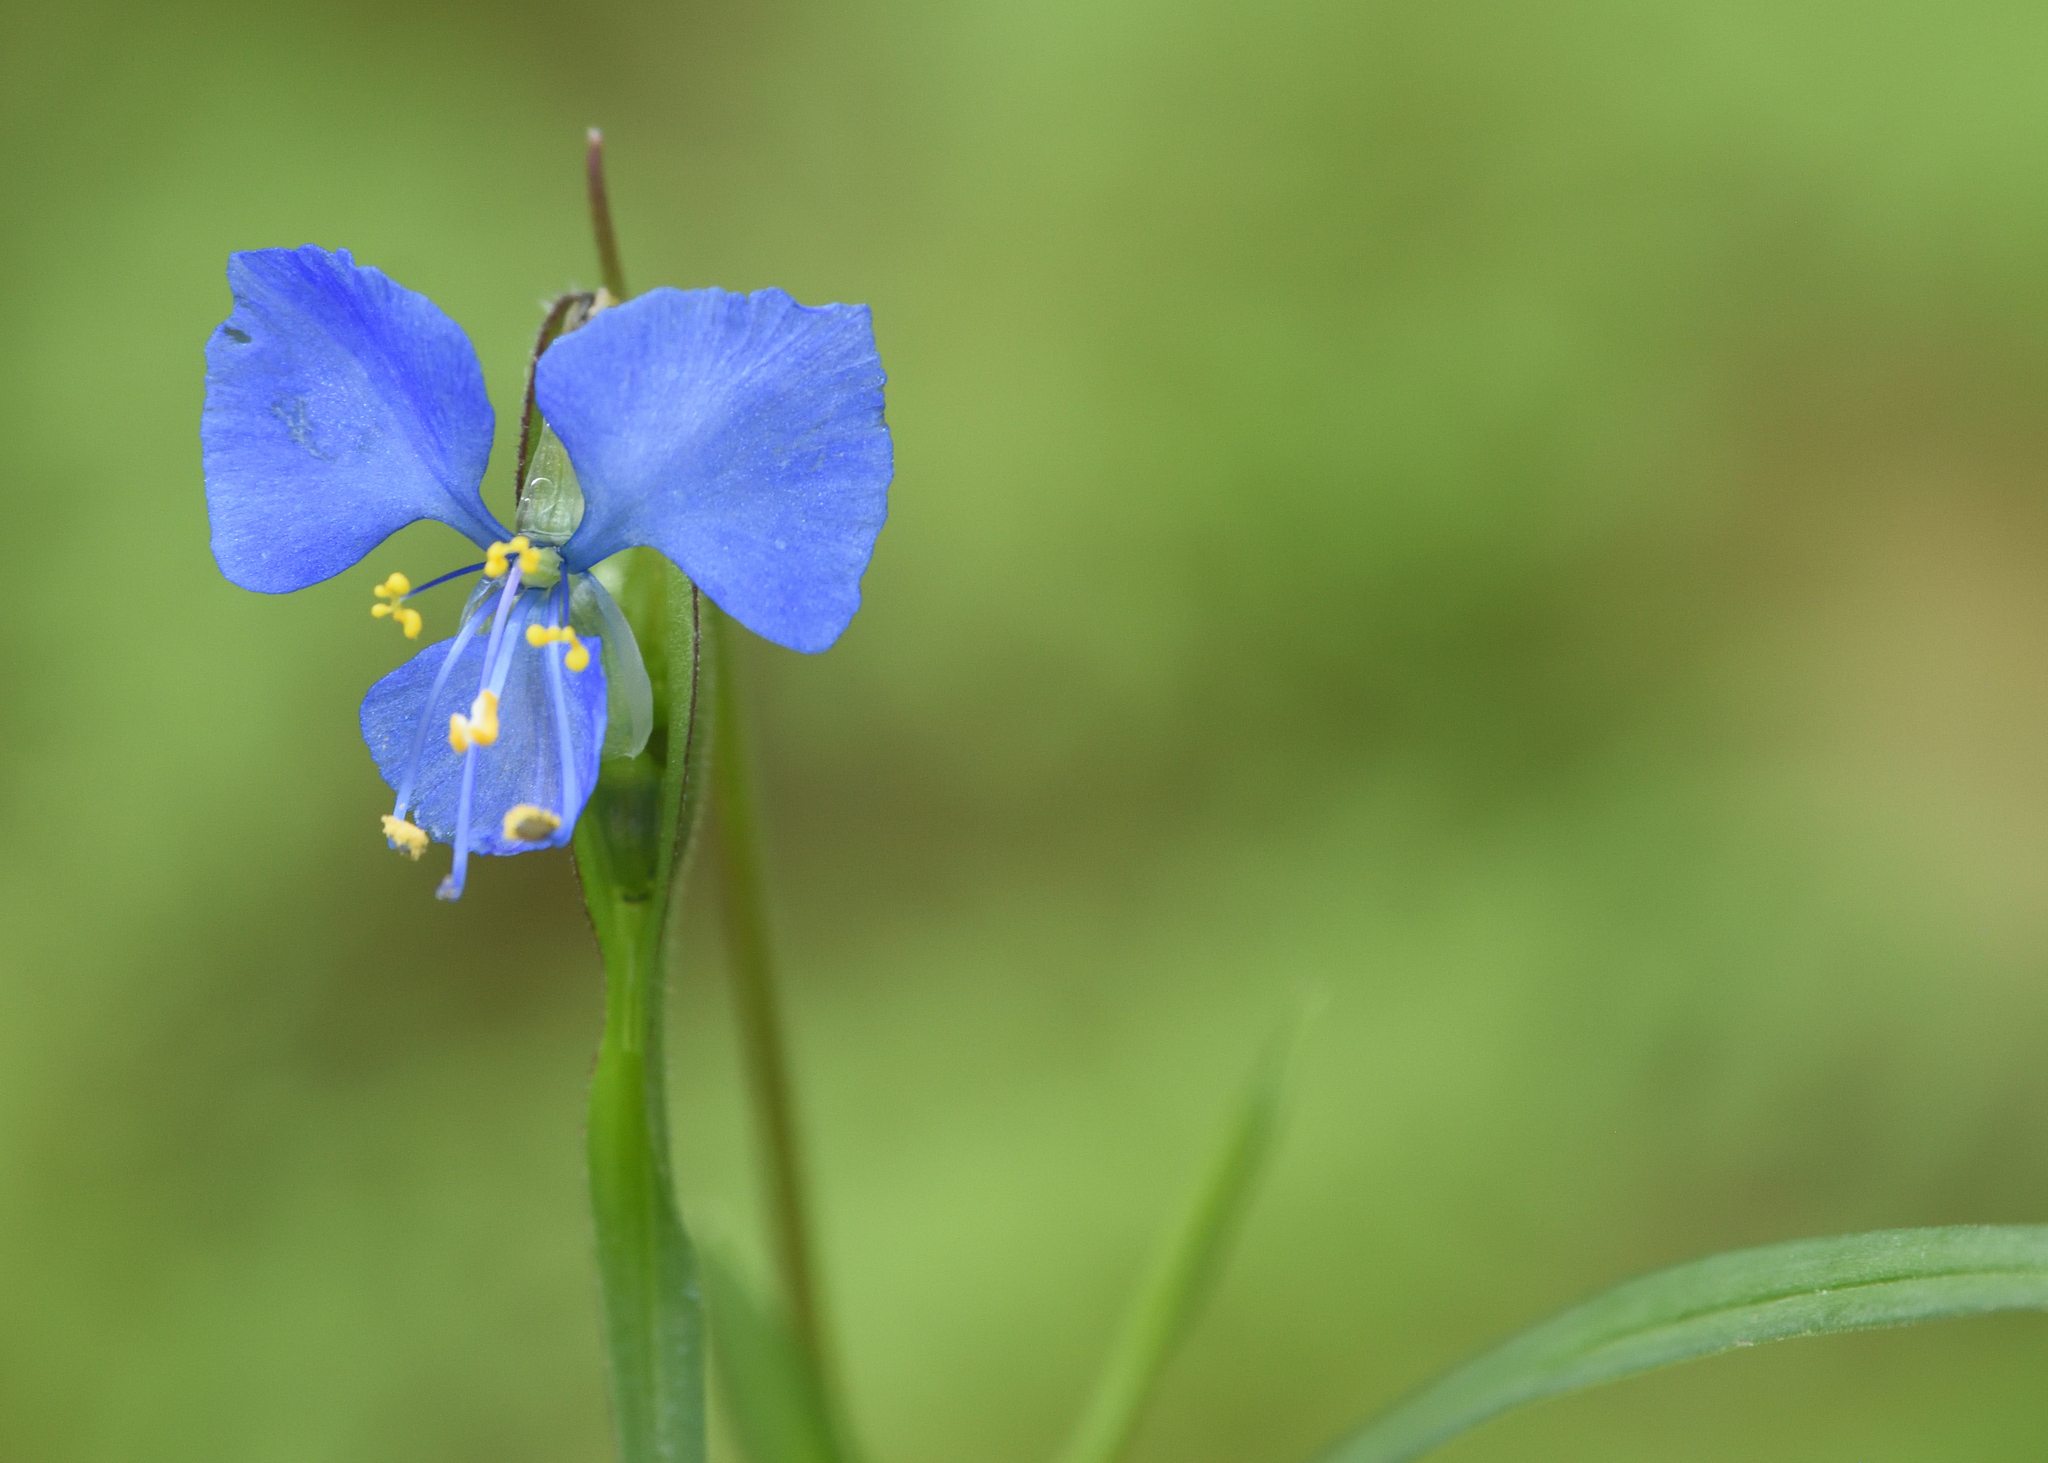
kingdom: Plantae
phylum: Tracheophyta
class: Liliopsida
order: Commelinales
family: Commelinaceae
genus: Commelina
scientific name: Commelina dianthifolia
